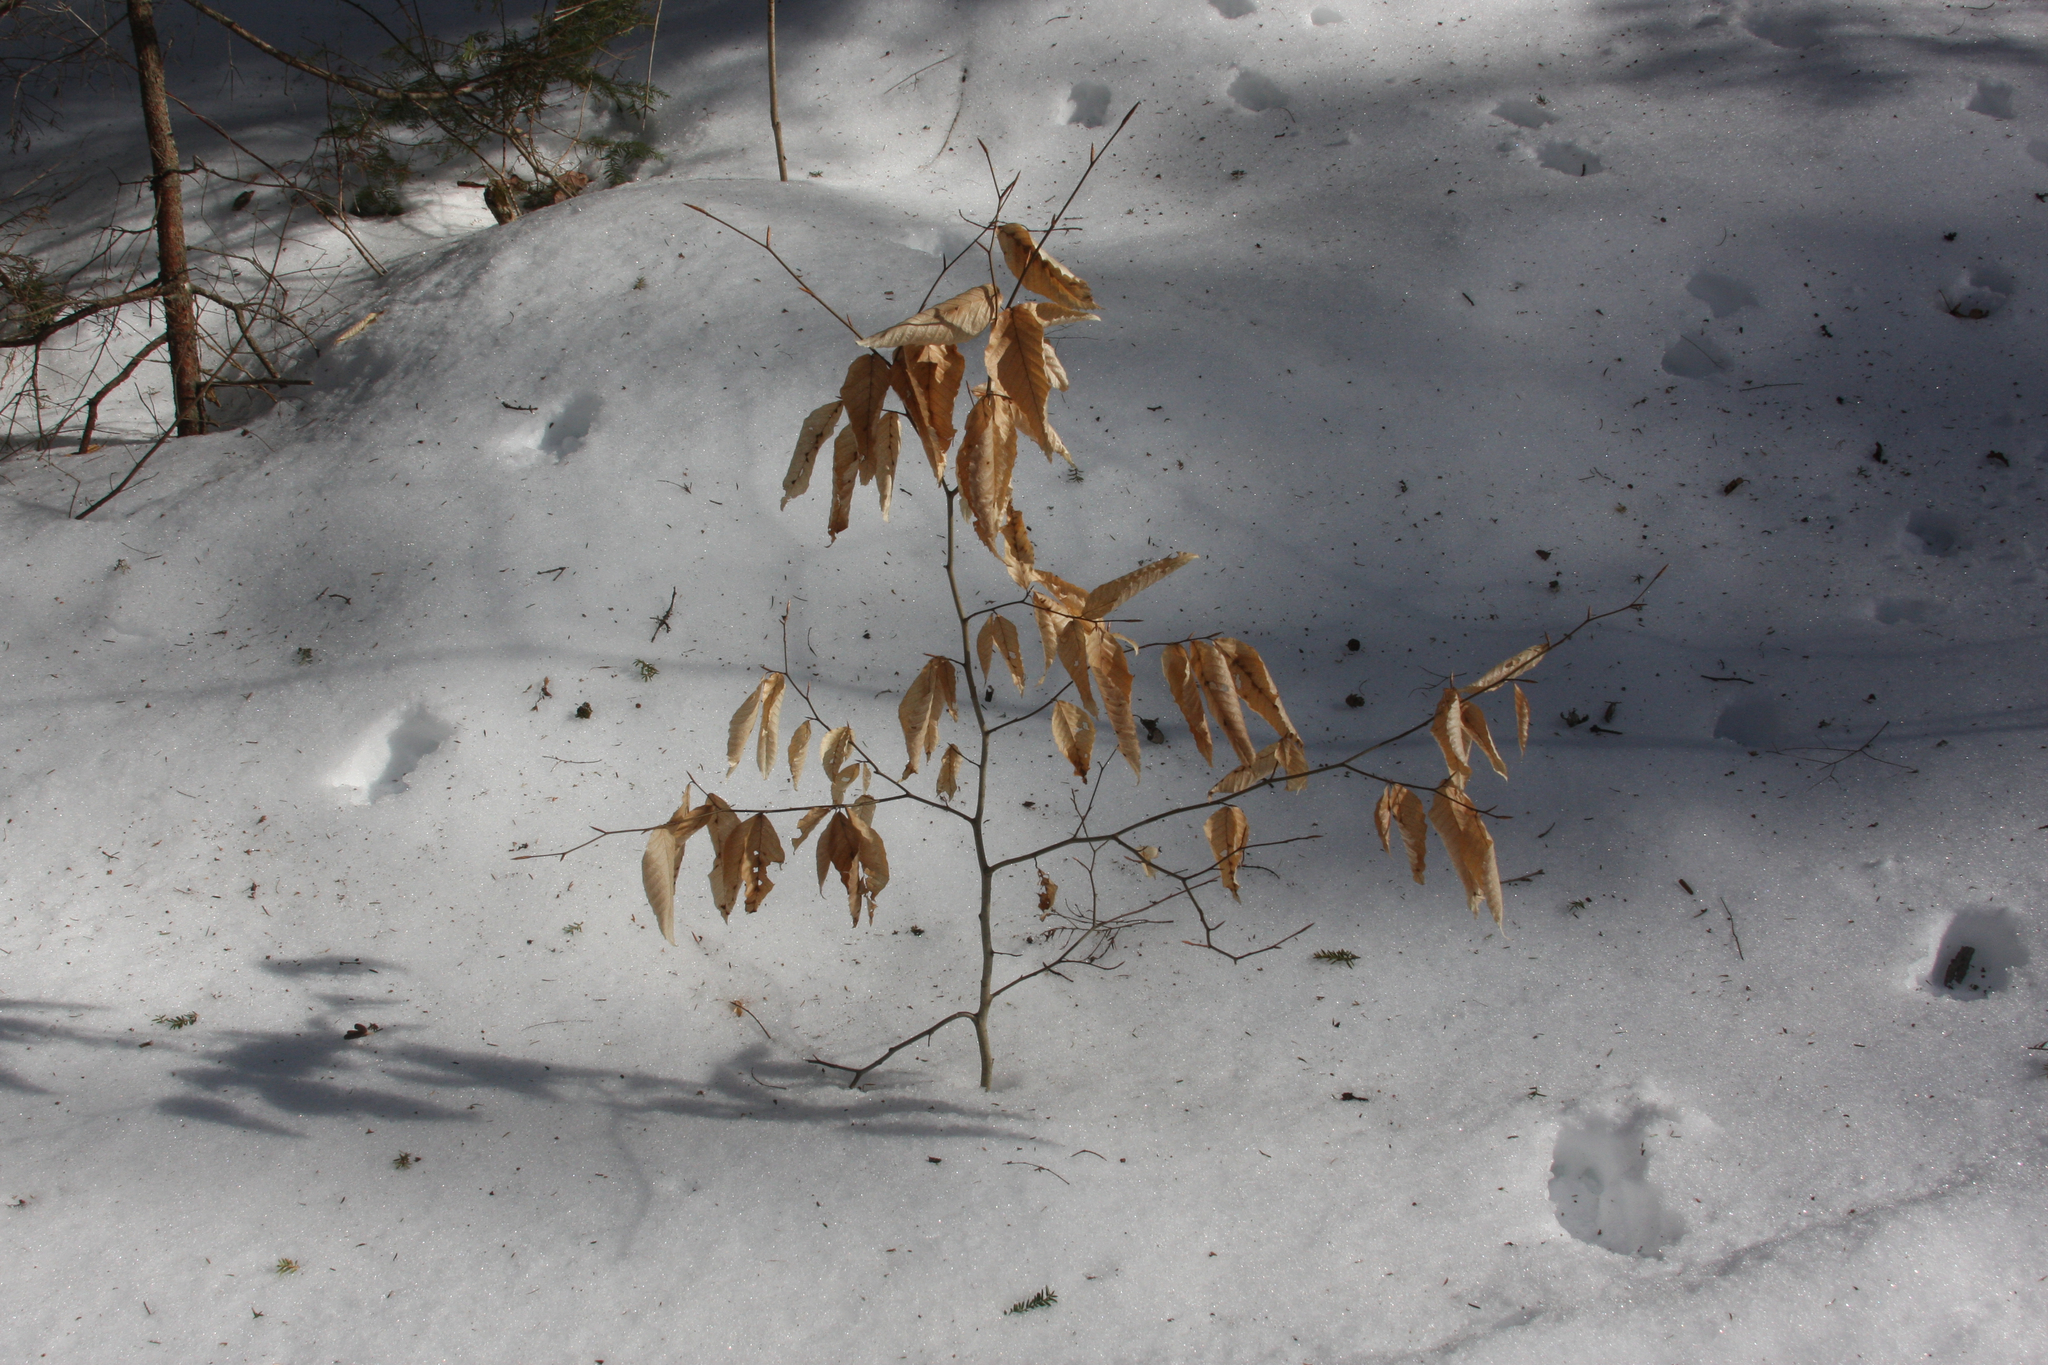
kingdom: Plantae
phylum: Tracheophyta
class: Magnoliopsida
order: Fagales
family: Fagaceae
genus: Fagus
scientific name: Fagus grandifolia
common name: American beech
